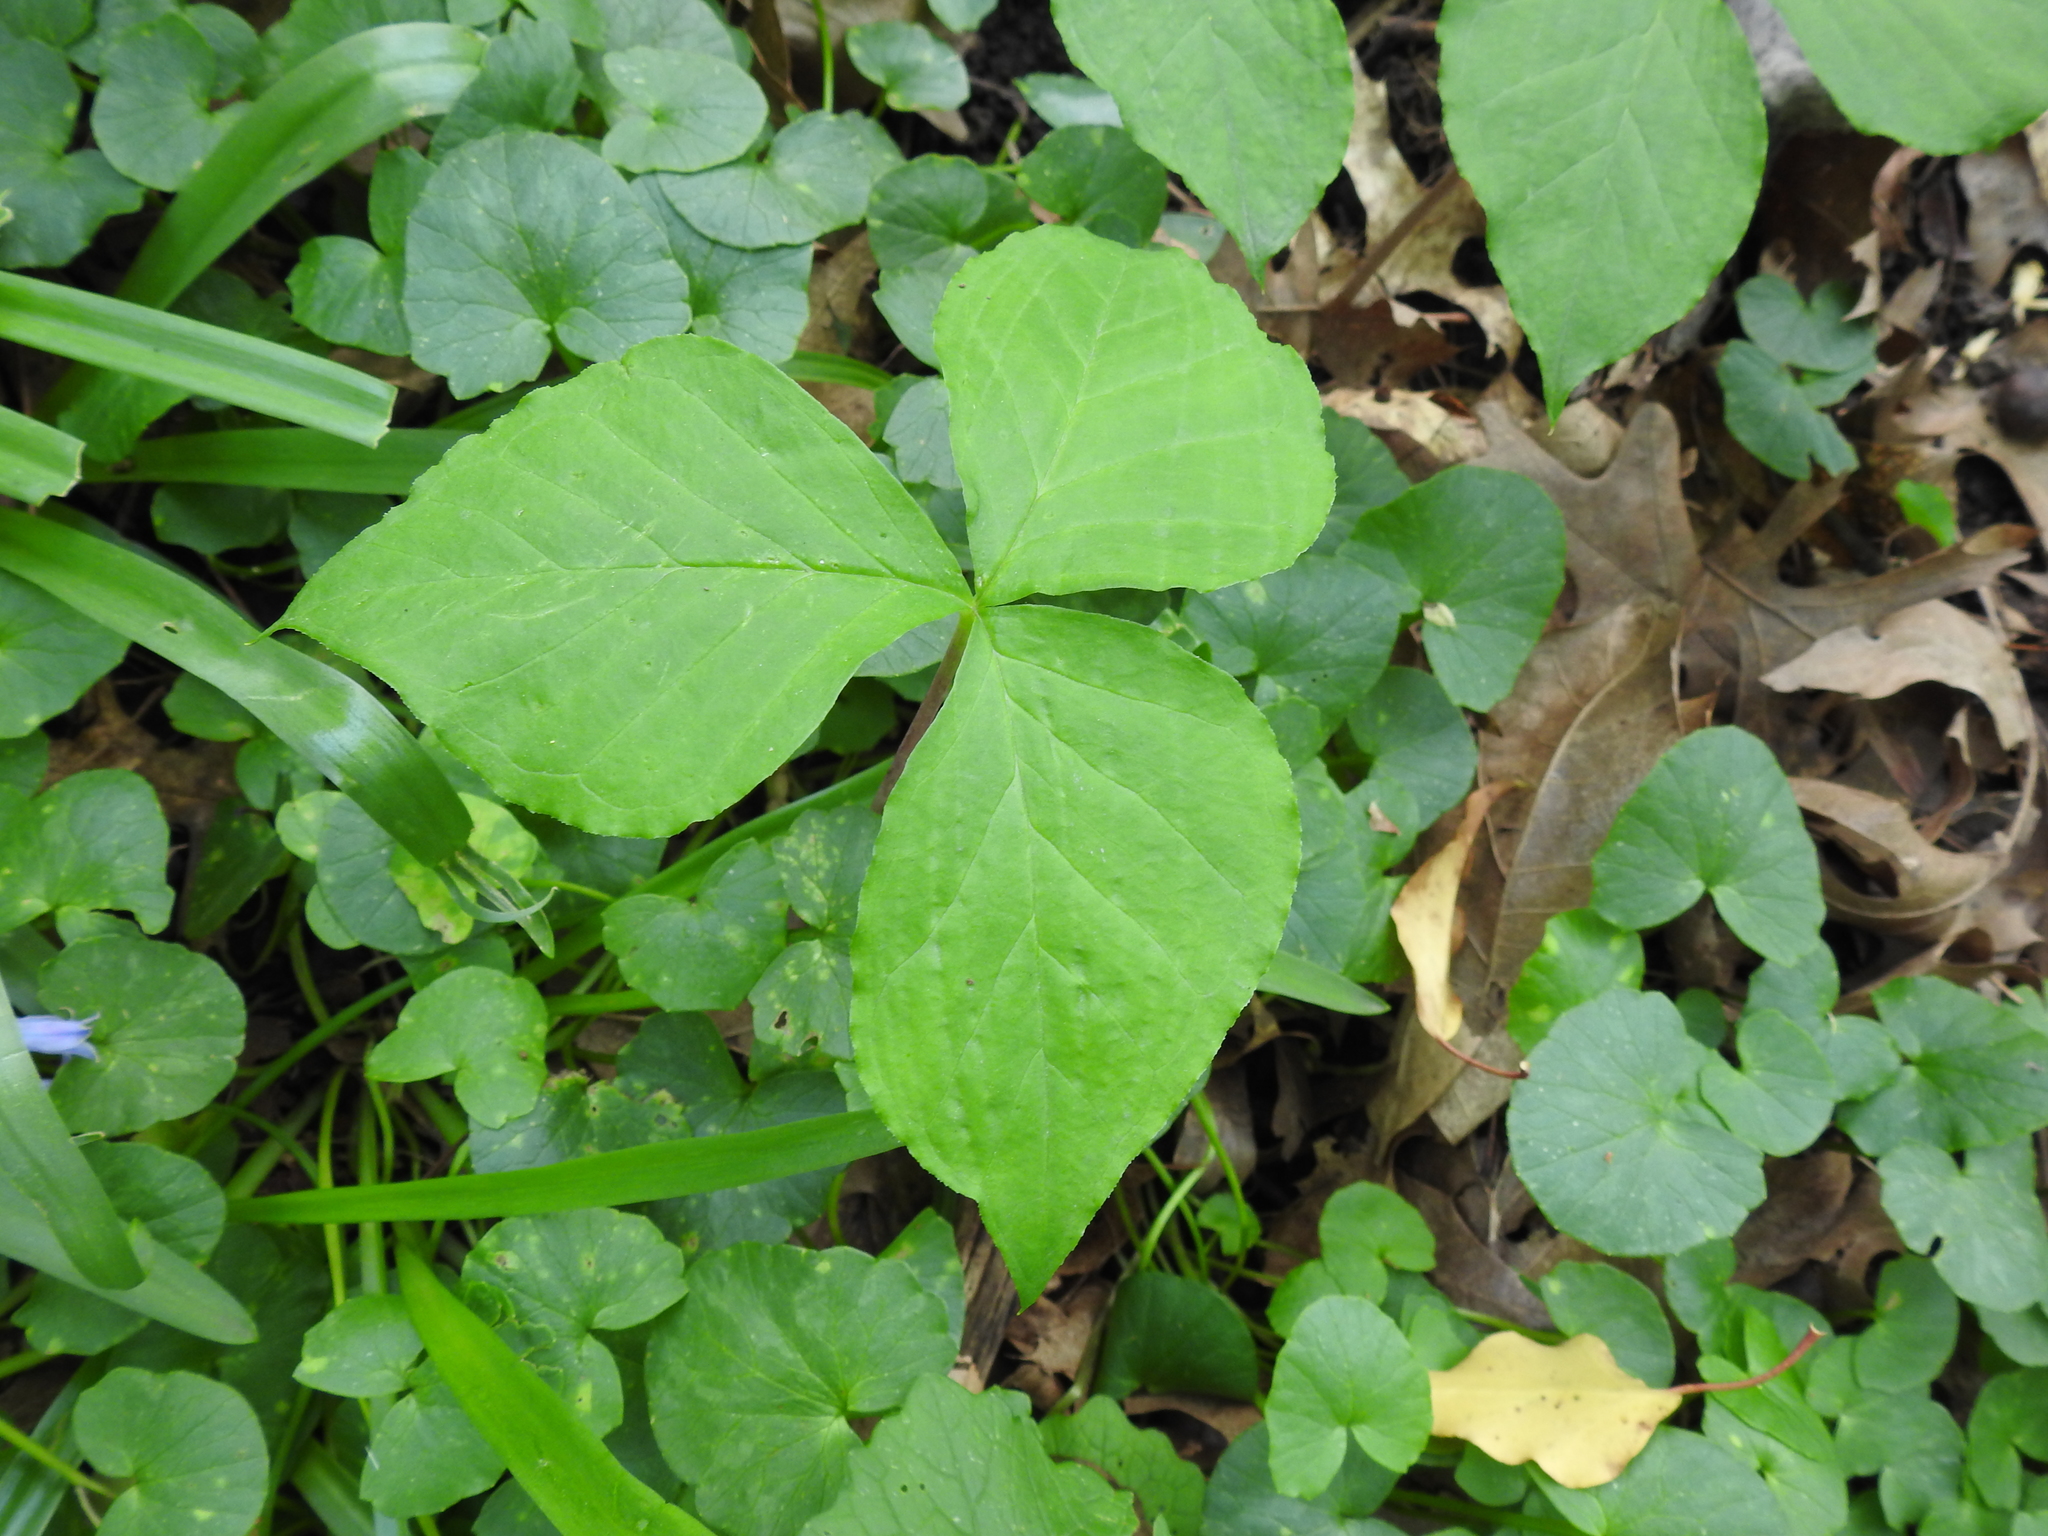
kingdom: Plantae
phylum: Tracheophyta
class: Liliopsida
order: Alismatales
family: Araceae
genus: Arisaema
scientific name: Arisaema triphyllum
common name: Jack-in-the-pulpit
